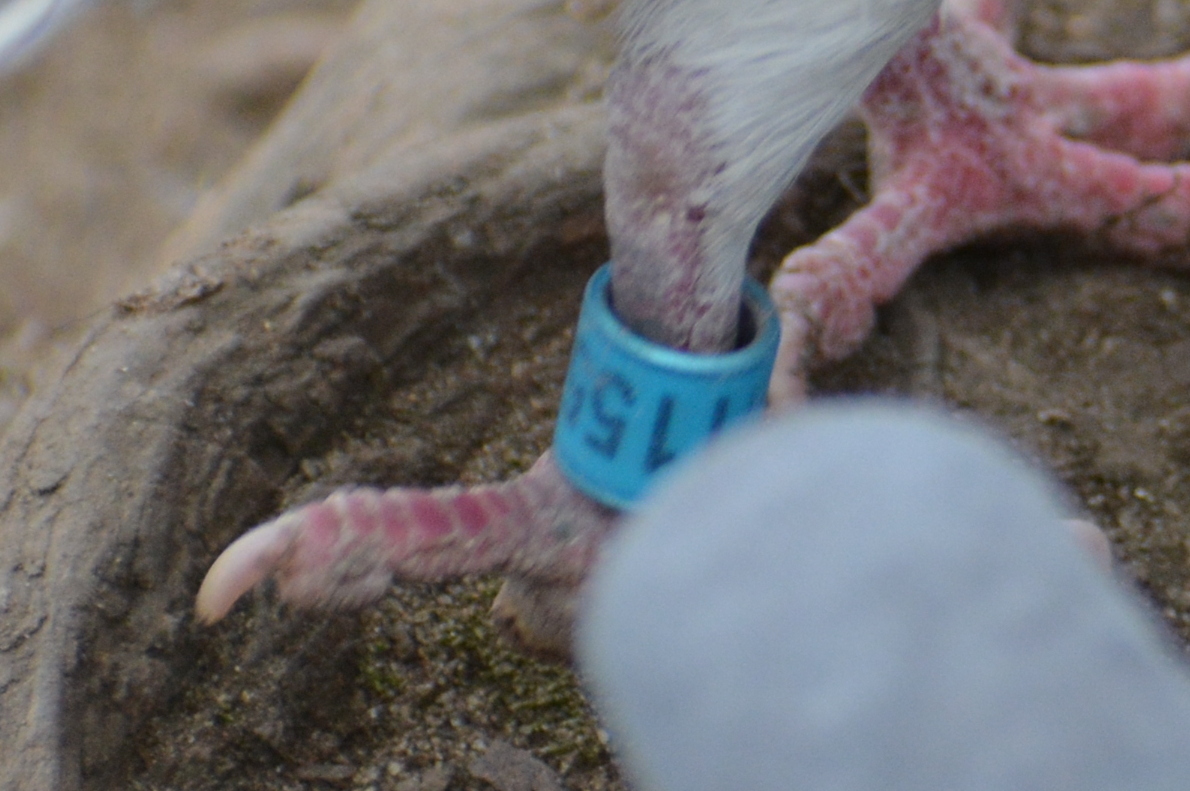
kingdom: Animalia
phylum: Chordata
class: Aves
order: Columbiformes
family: Columbidae
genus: Columba
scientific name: Columba livia
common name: Rock pigeon
